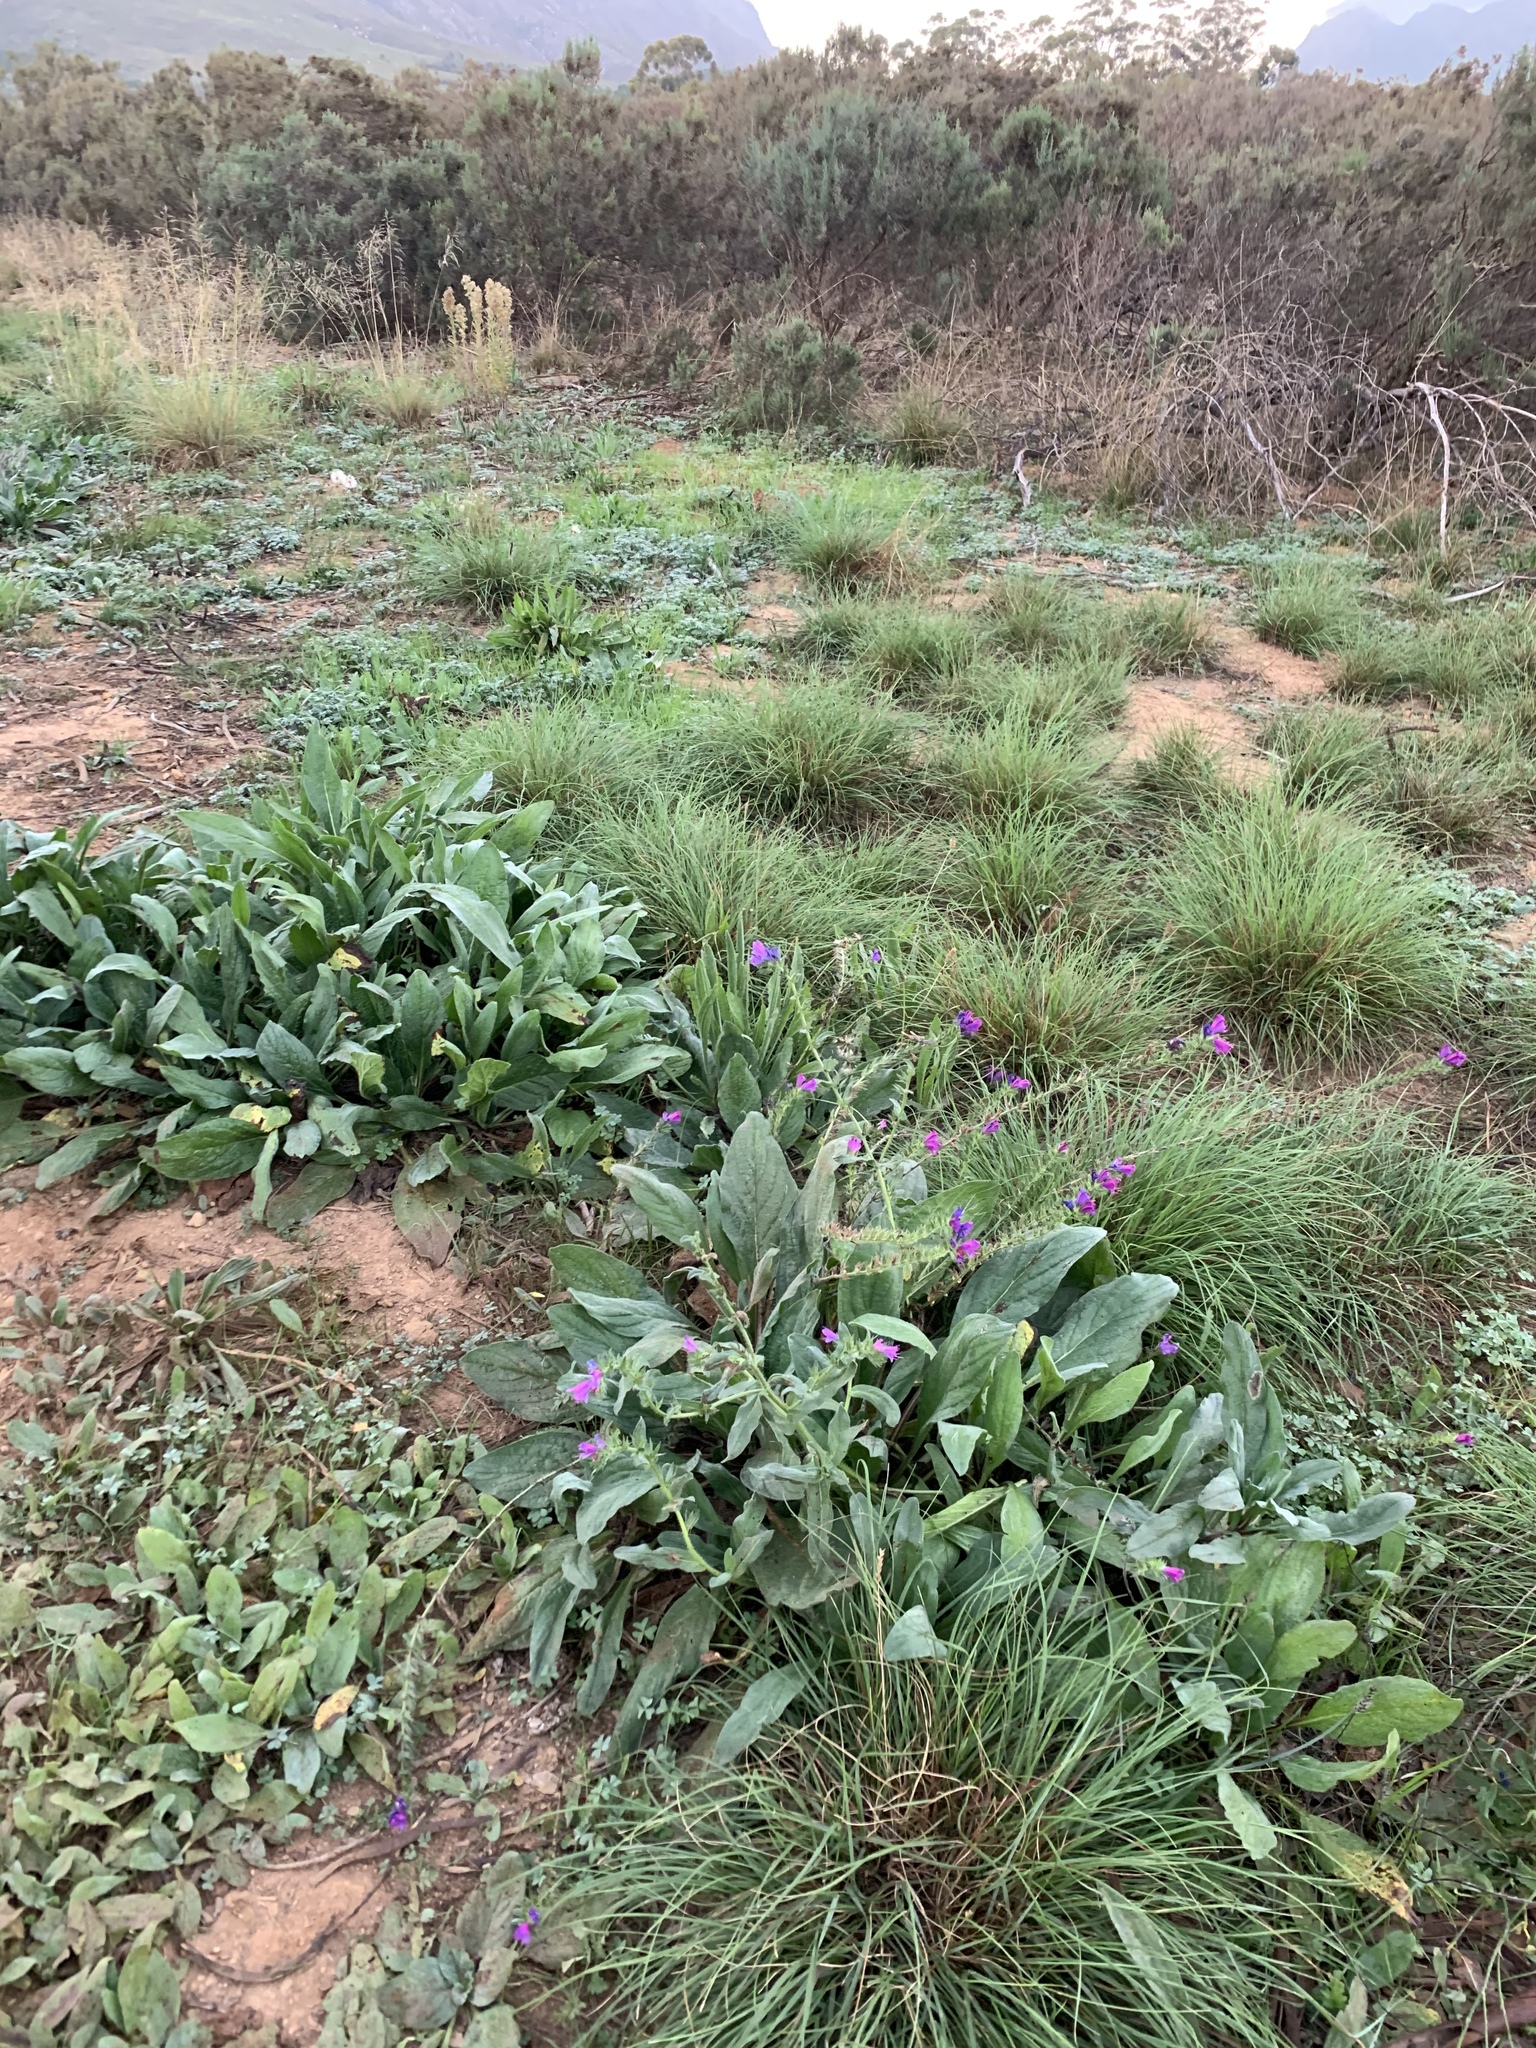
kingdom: Plantae
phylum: Tracheophyta
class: Magnoliopsida
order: Boraginales
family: Boraginaceae
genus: Echium
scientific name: Echium plantagineum
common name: Purple viper's-bugloss
